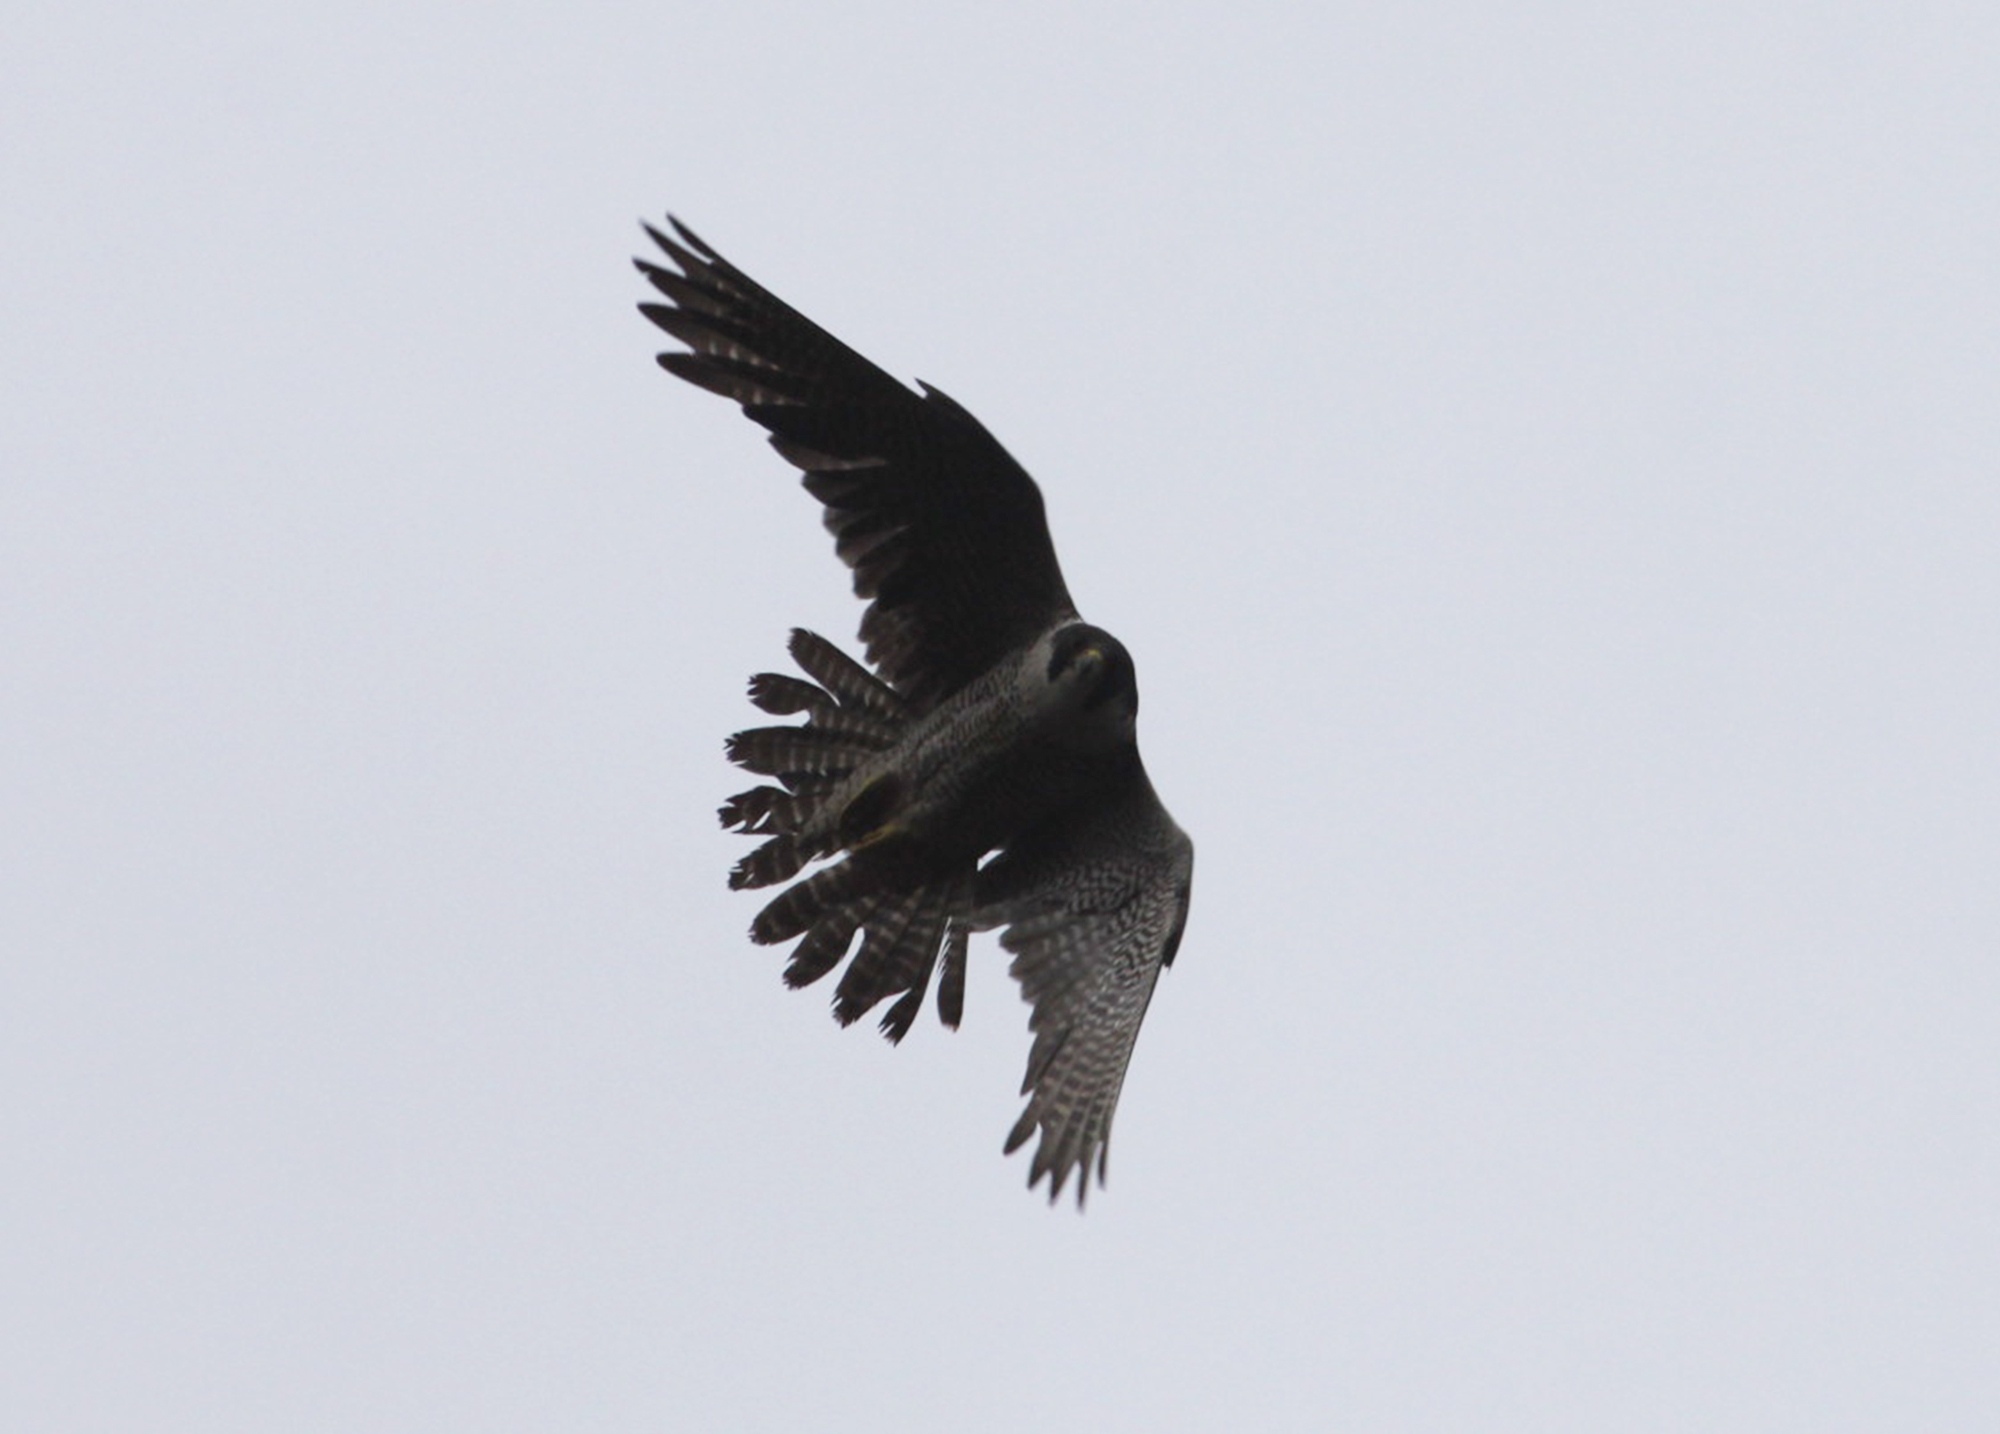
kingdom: Animalia
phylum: Chordata
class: Aves
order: Falconiformes
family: Falconidae
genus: Falco
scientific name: Falco peregrinus
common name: Peregrine falcon
